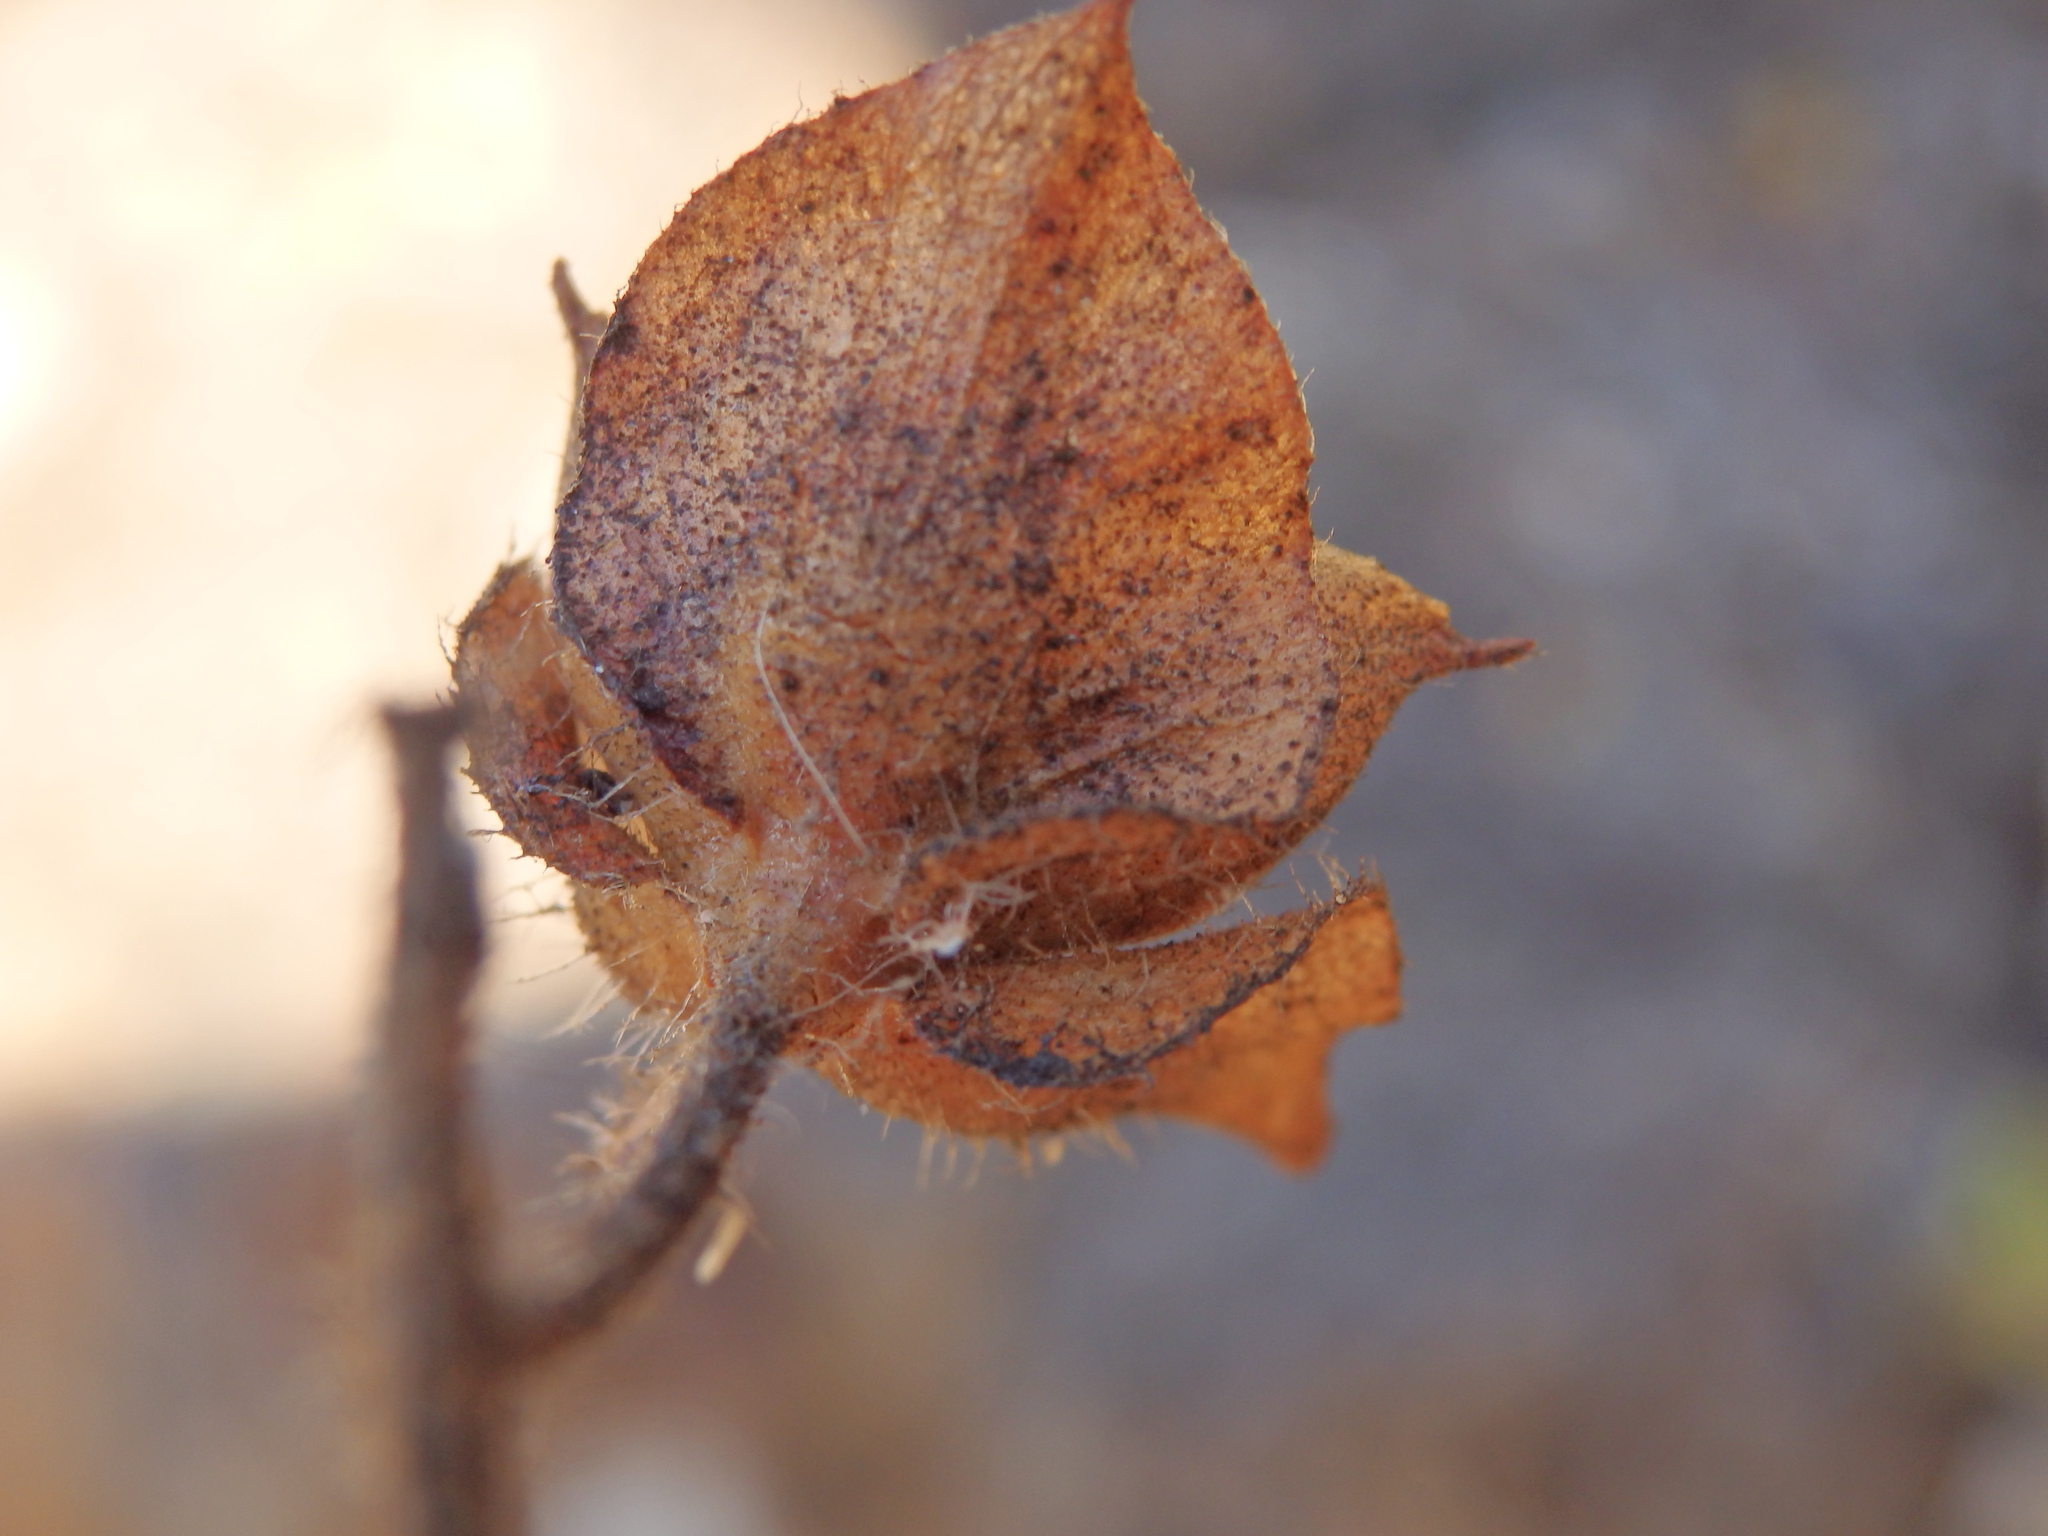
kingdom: Plantae
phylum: Tracheophyta
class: Magnoliopsida
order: Malvales
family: Cistaceae
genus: Cistus
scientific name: Cistus populifolius
